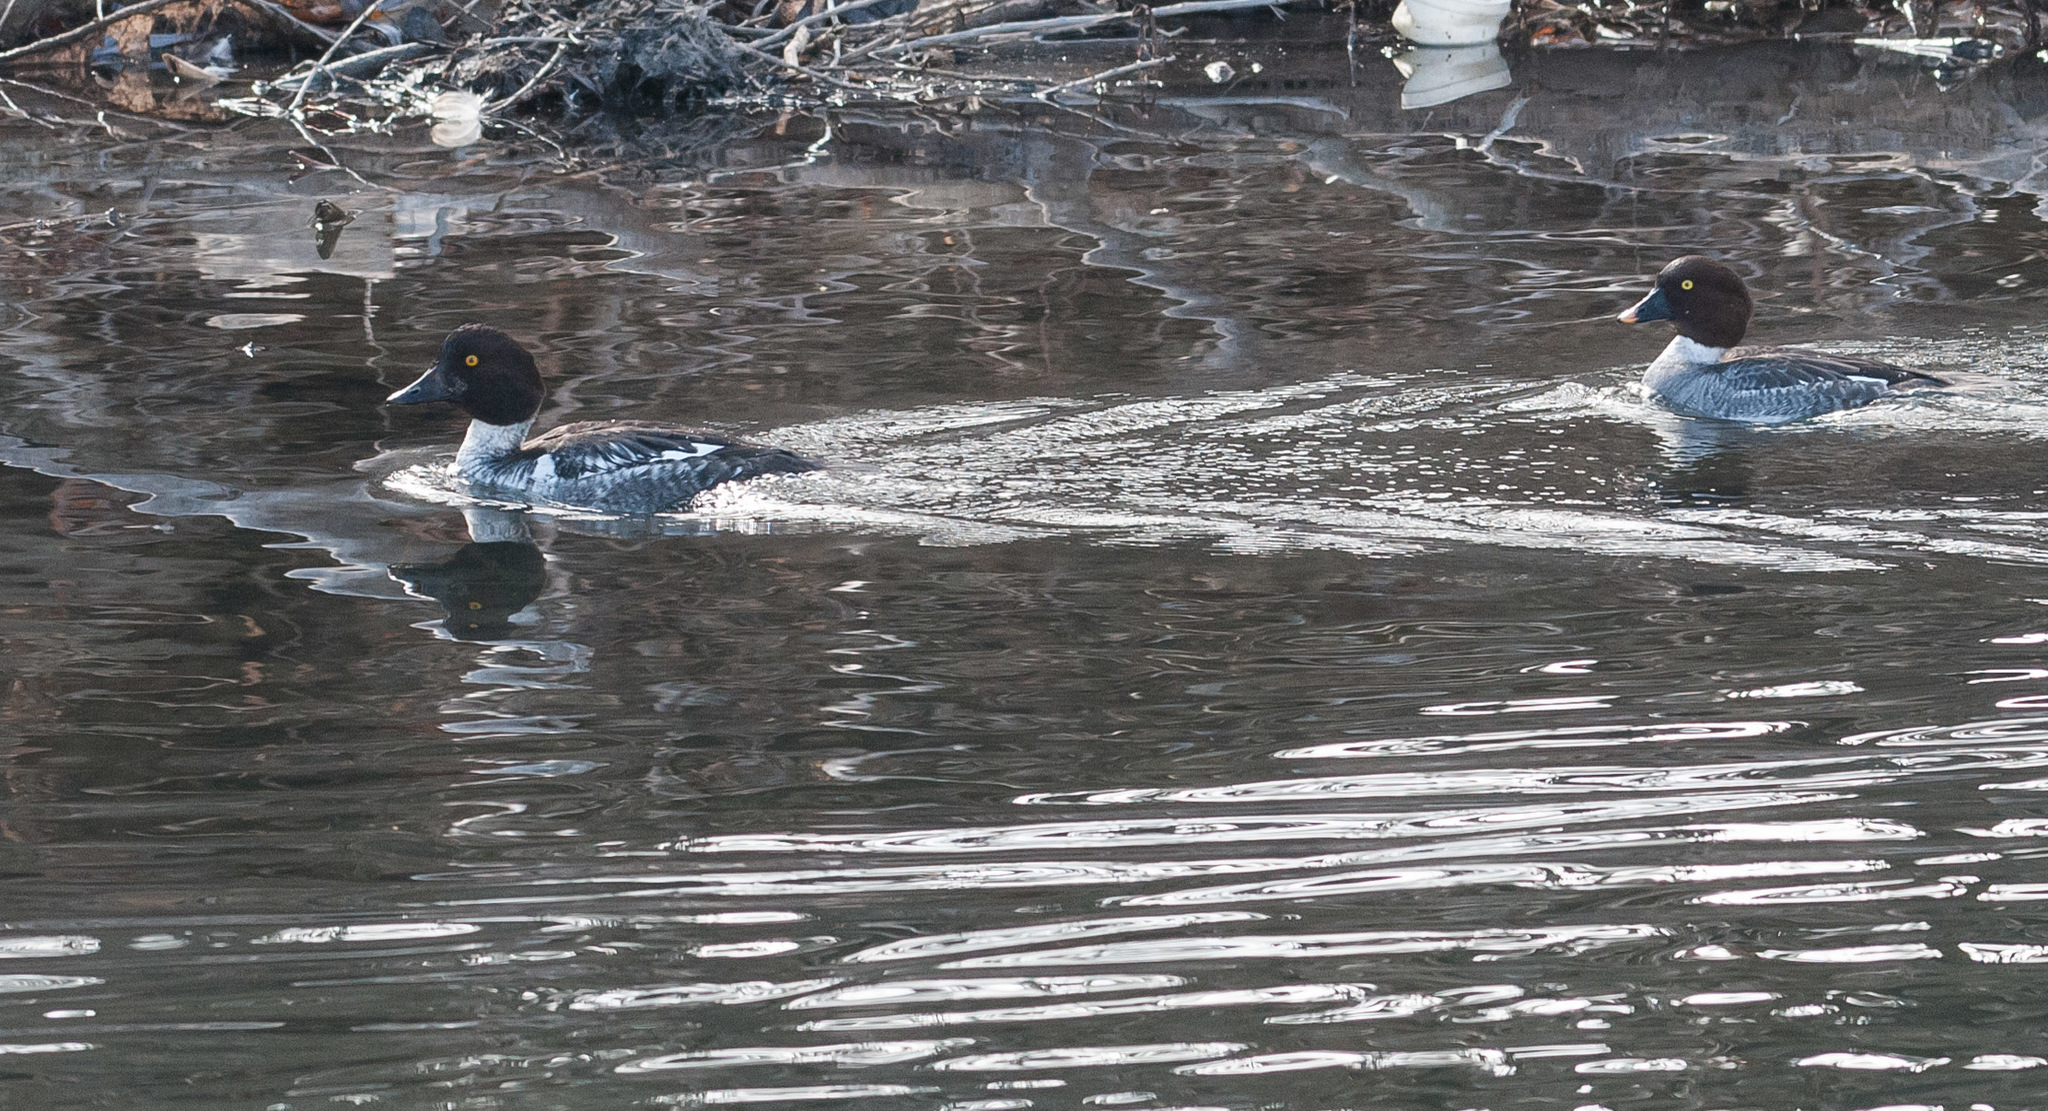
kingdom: Animalia
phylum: Chordata
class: Aves
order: Anseriformes
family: Anatidae
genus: Bucephala
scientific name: Bucephala clangula
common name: Common goldeneye
